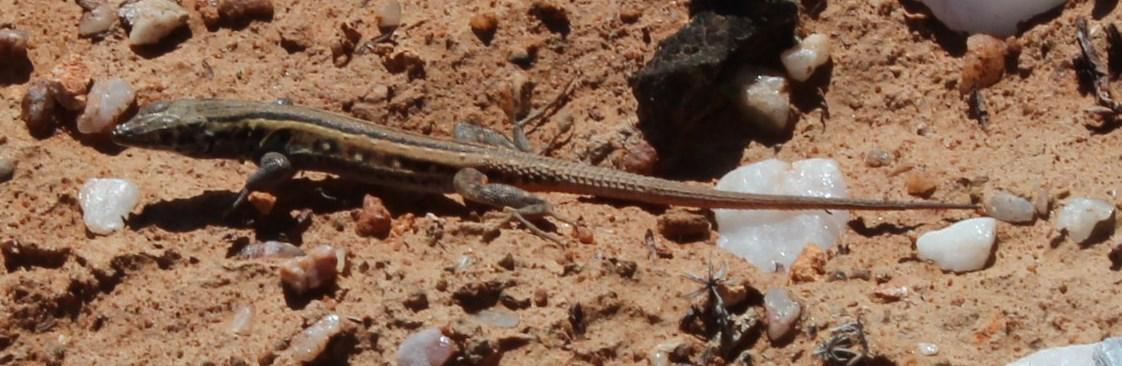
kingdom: Animalia
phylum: Chordata
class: Squamata
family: Lacertidae
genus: Pedioplanis
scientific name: Pedioplanis lineoocellata
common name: Spotted sand lizard
